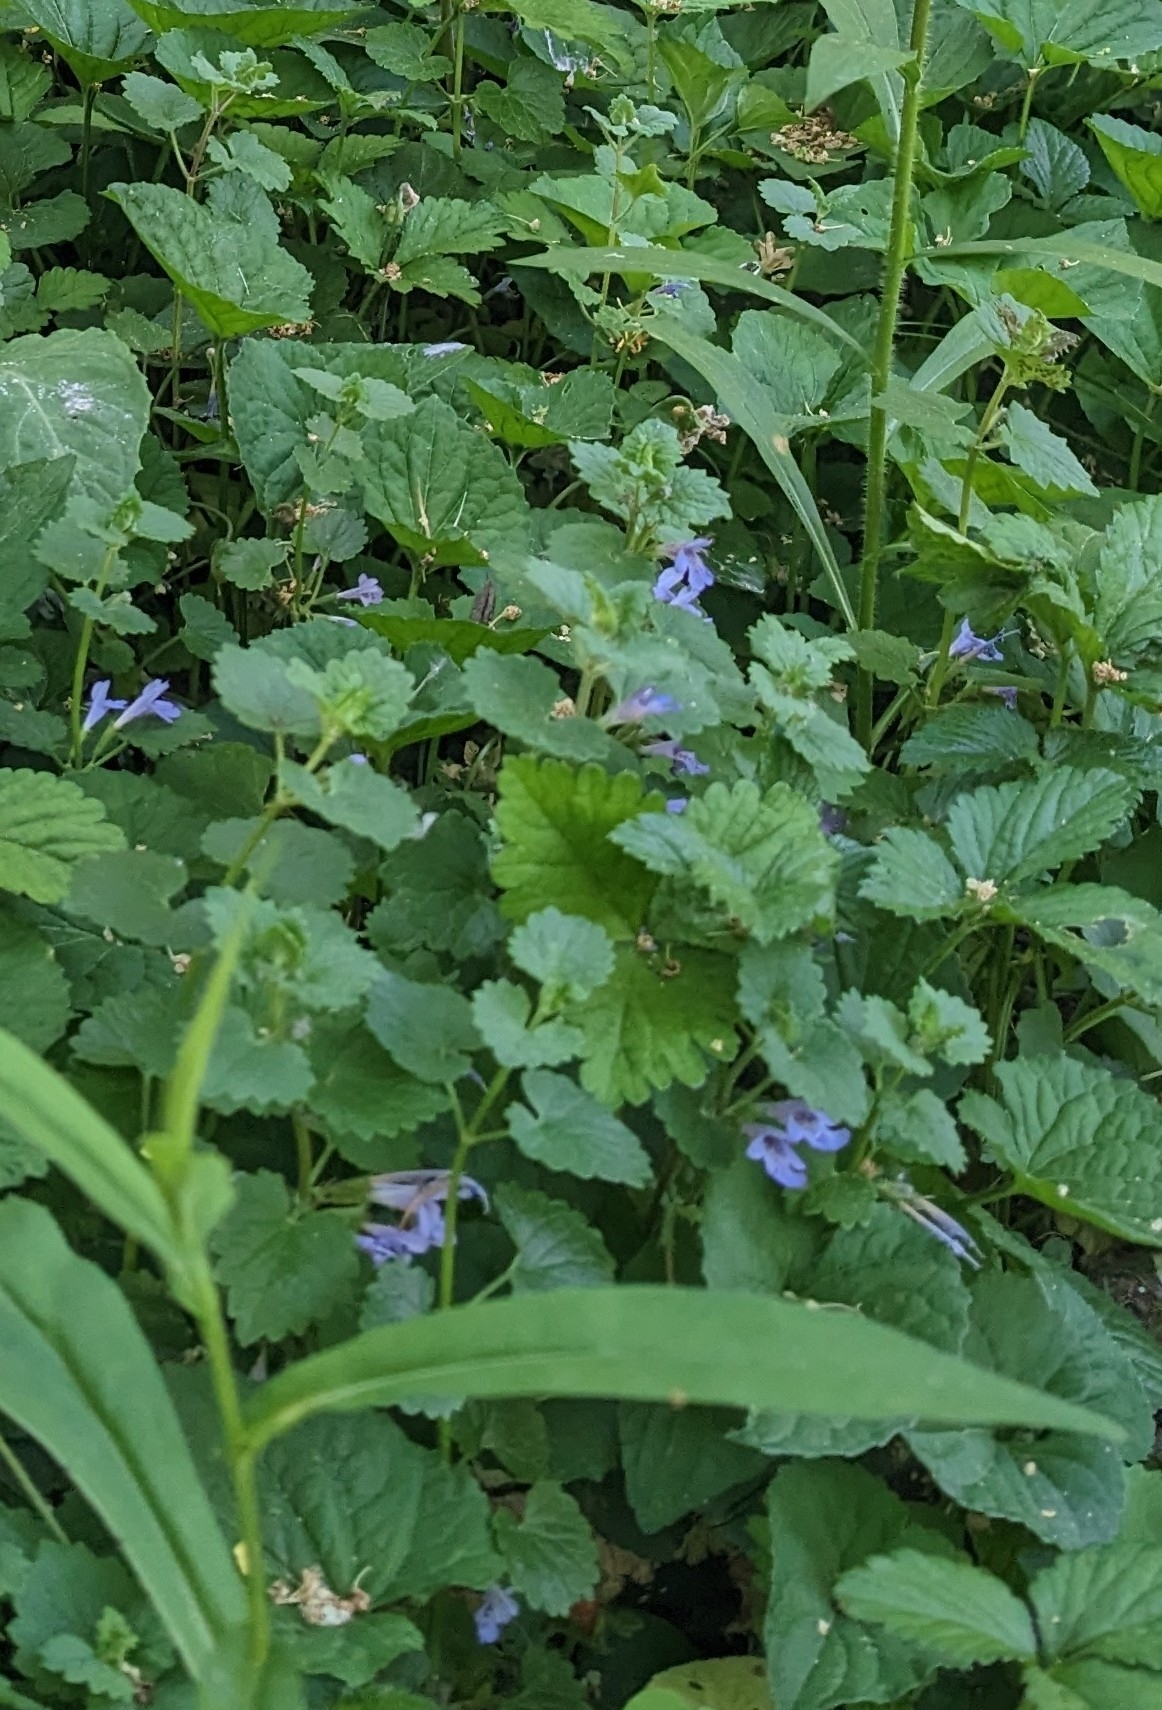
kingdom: Plantae
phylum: Tracheophyta
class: Magnoliopsida
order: Lamiales
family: Lamiaceae
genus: Glechoma
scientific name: Glechoma hederacea
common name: Ground ivy
